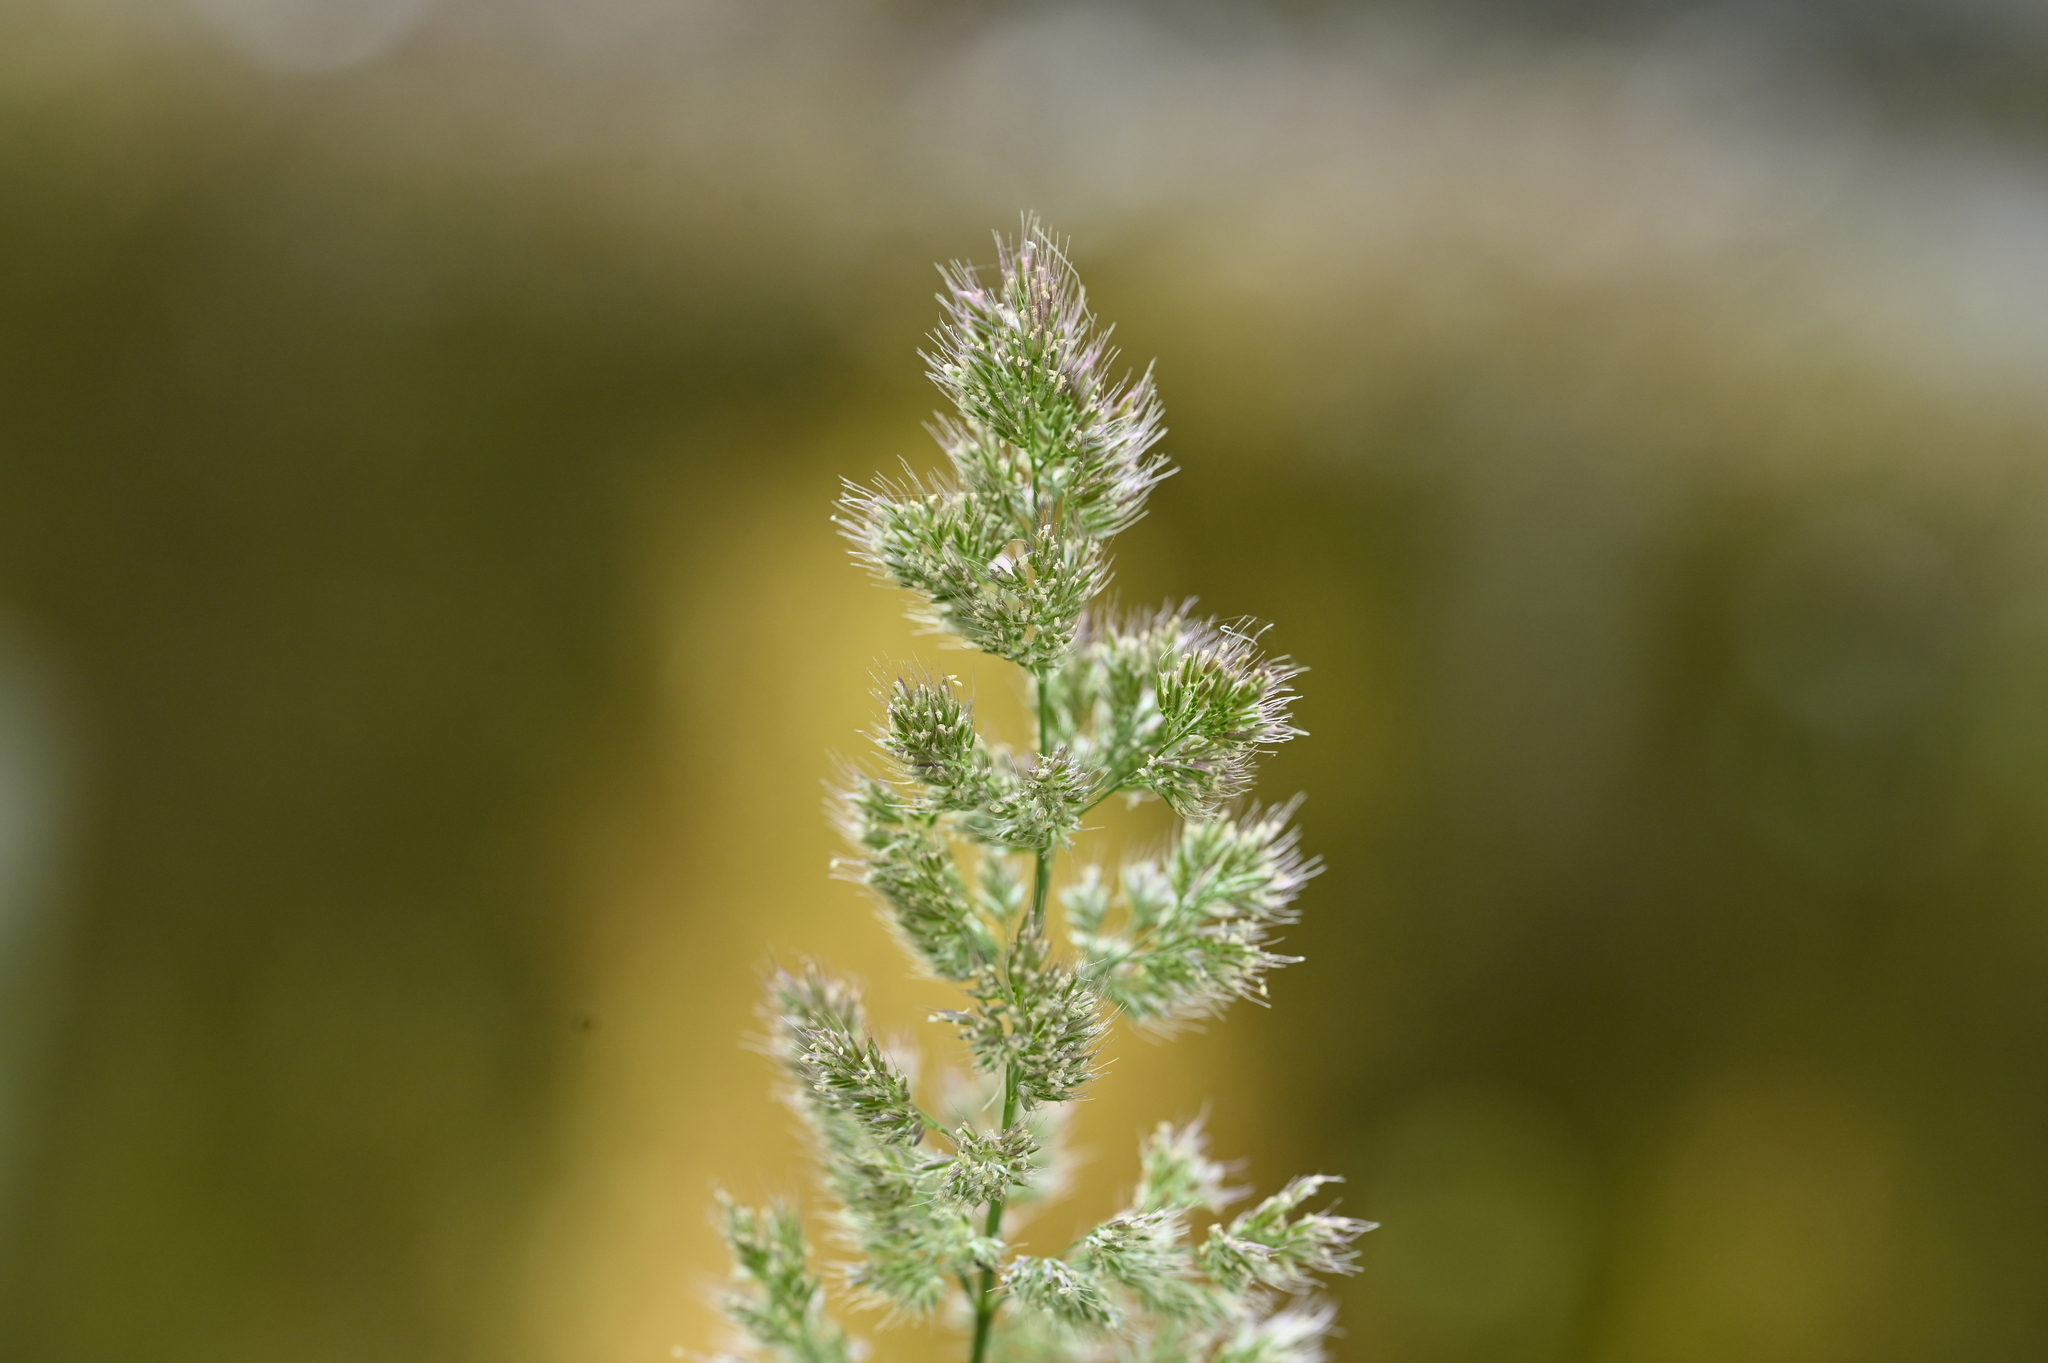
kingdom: Plantae
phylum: Tracheophyta
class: Liliopsida
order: Poales
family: Poaceae
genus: Polypogon
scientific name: Polypogon fugax
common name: Asia minor bluegrass
